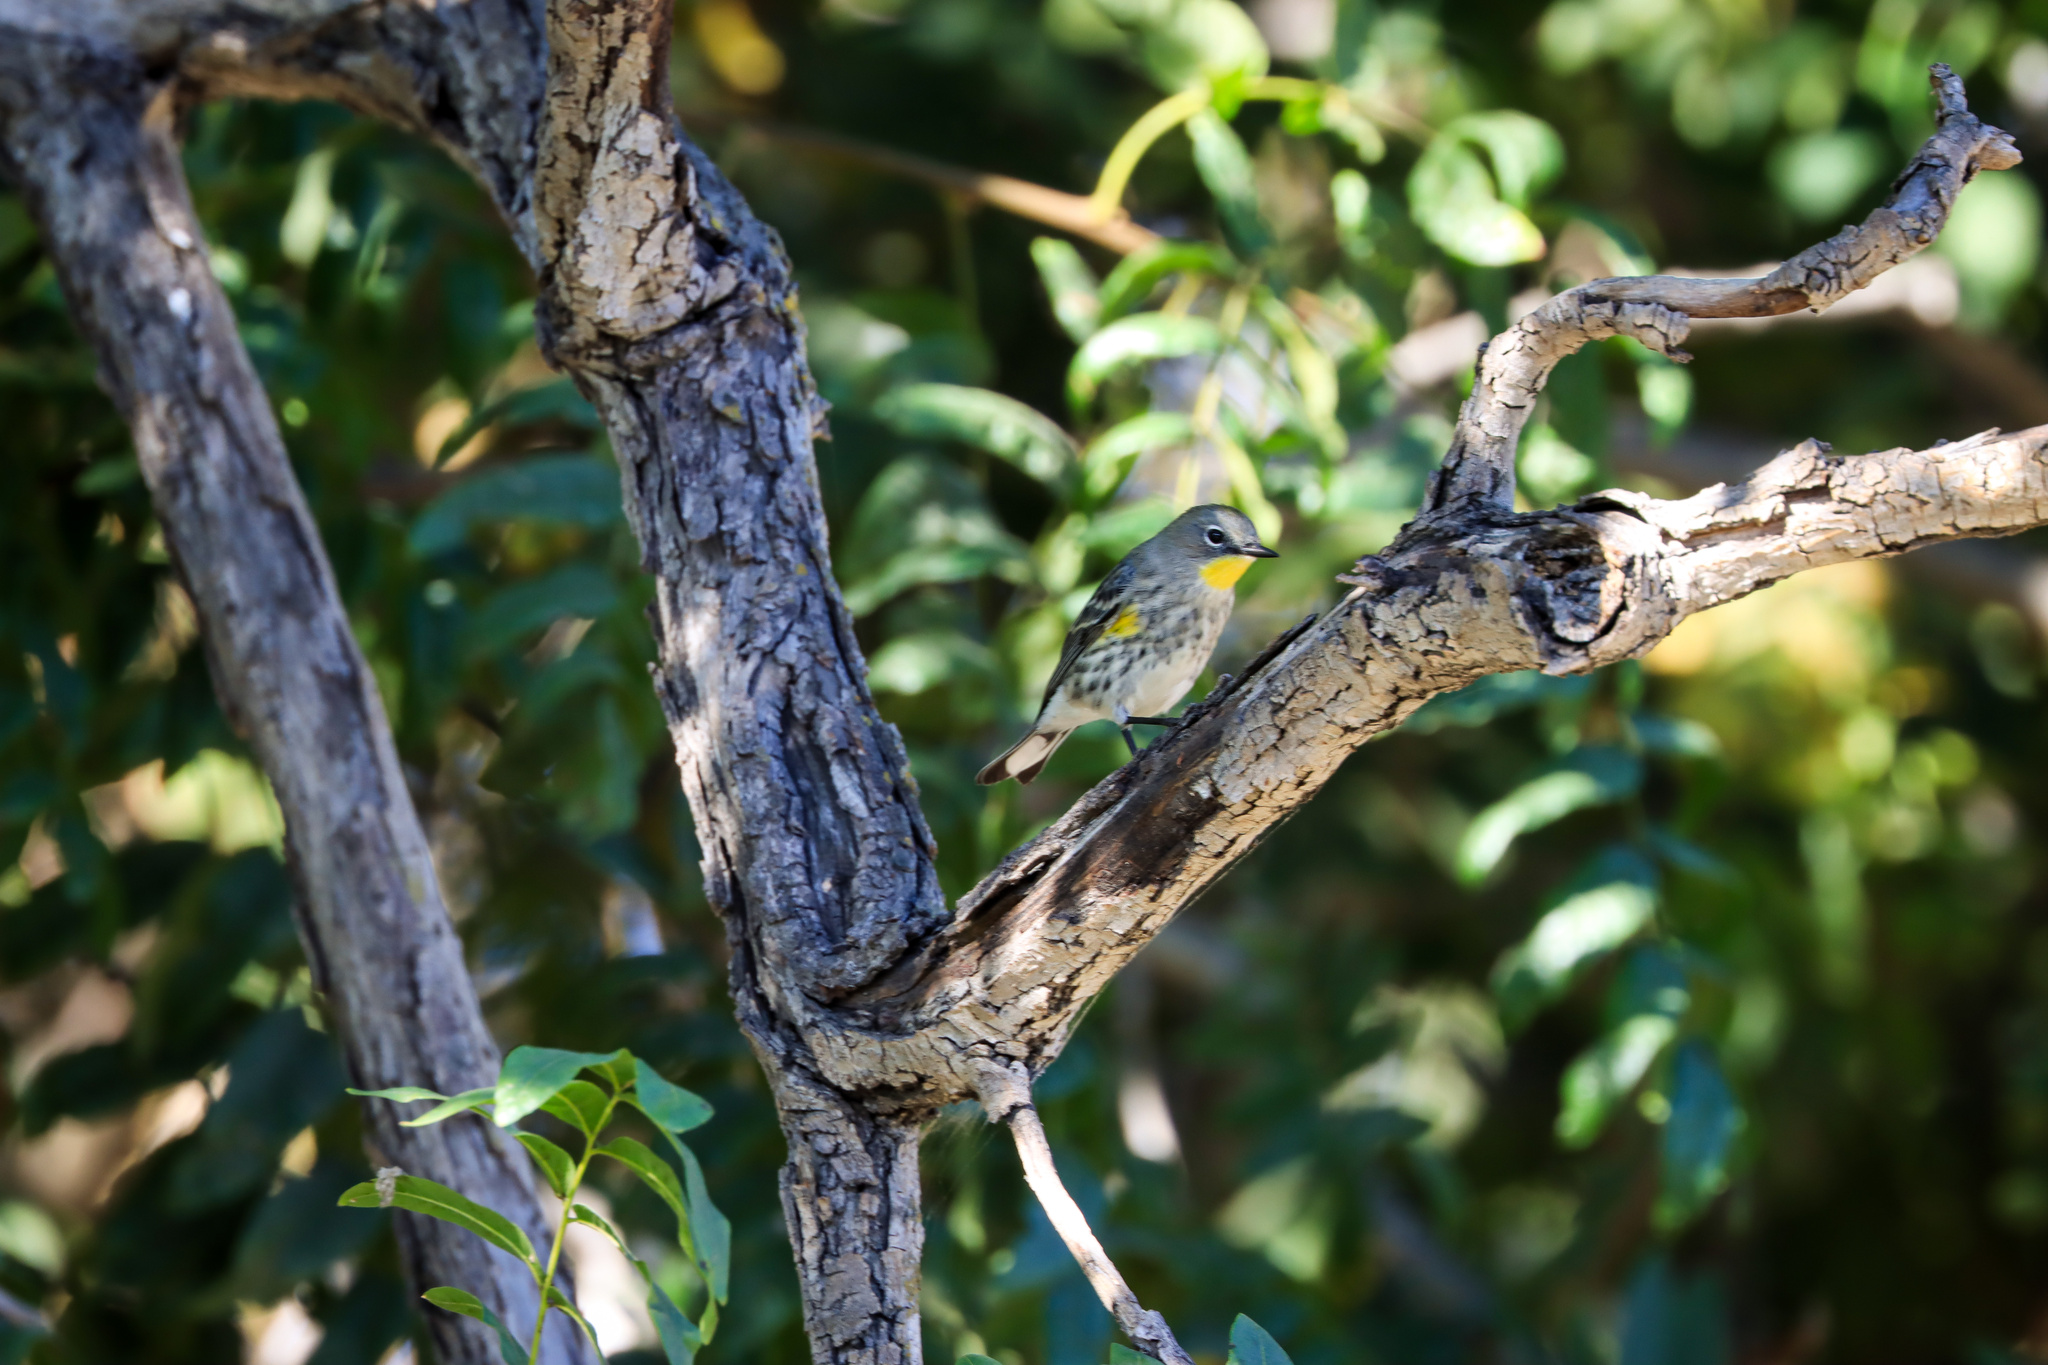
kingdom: Animalia
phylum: Chordata
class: Aves
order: Passeriformes
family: Parulidae
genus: Setophaga
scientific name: Setophaga coronata
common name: Myrtle warbler
